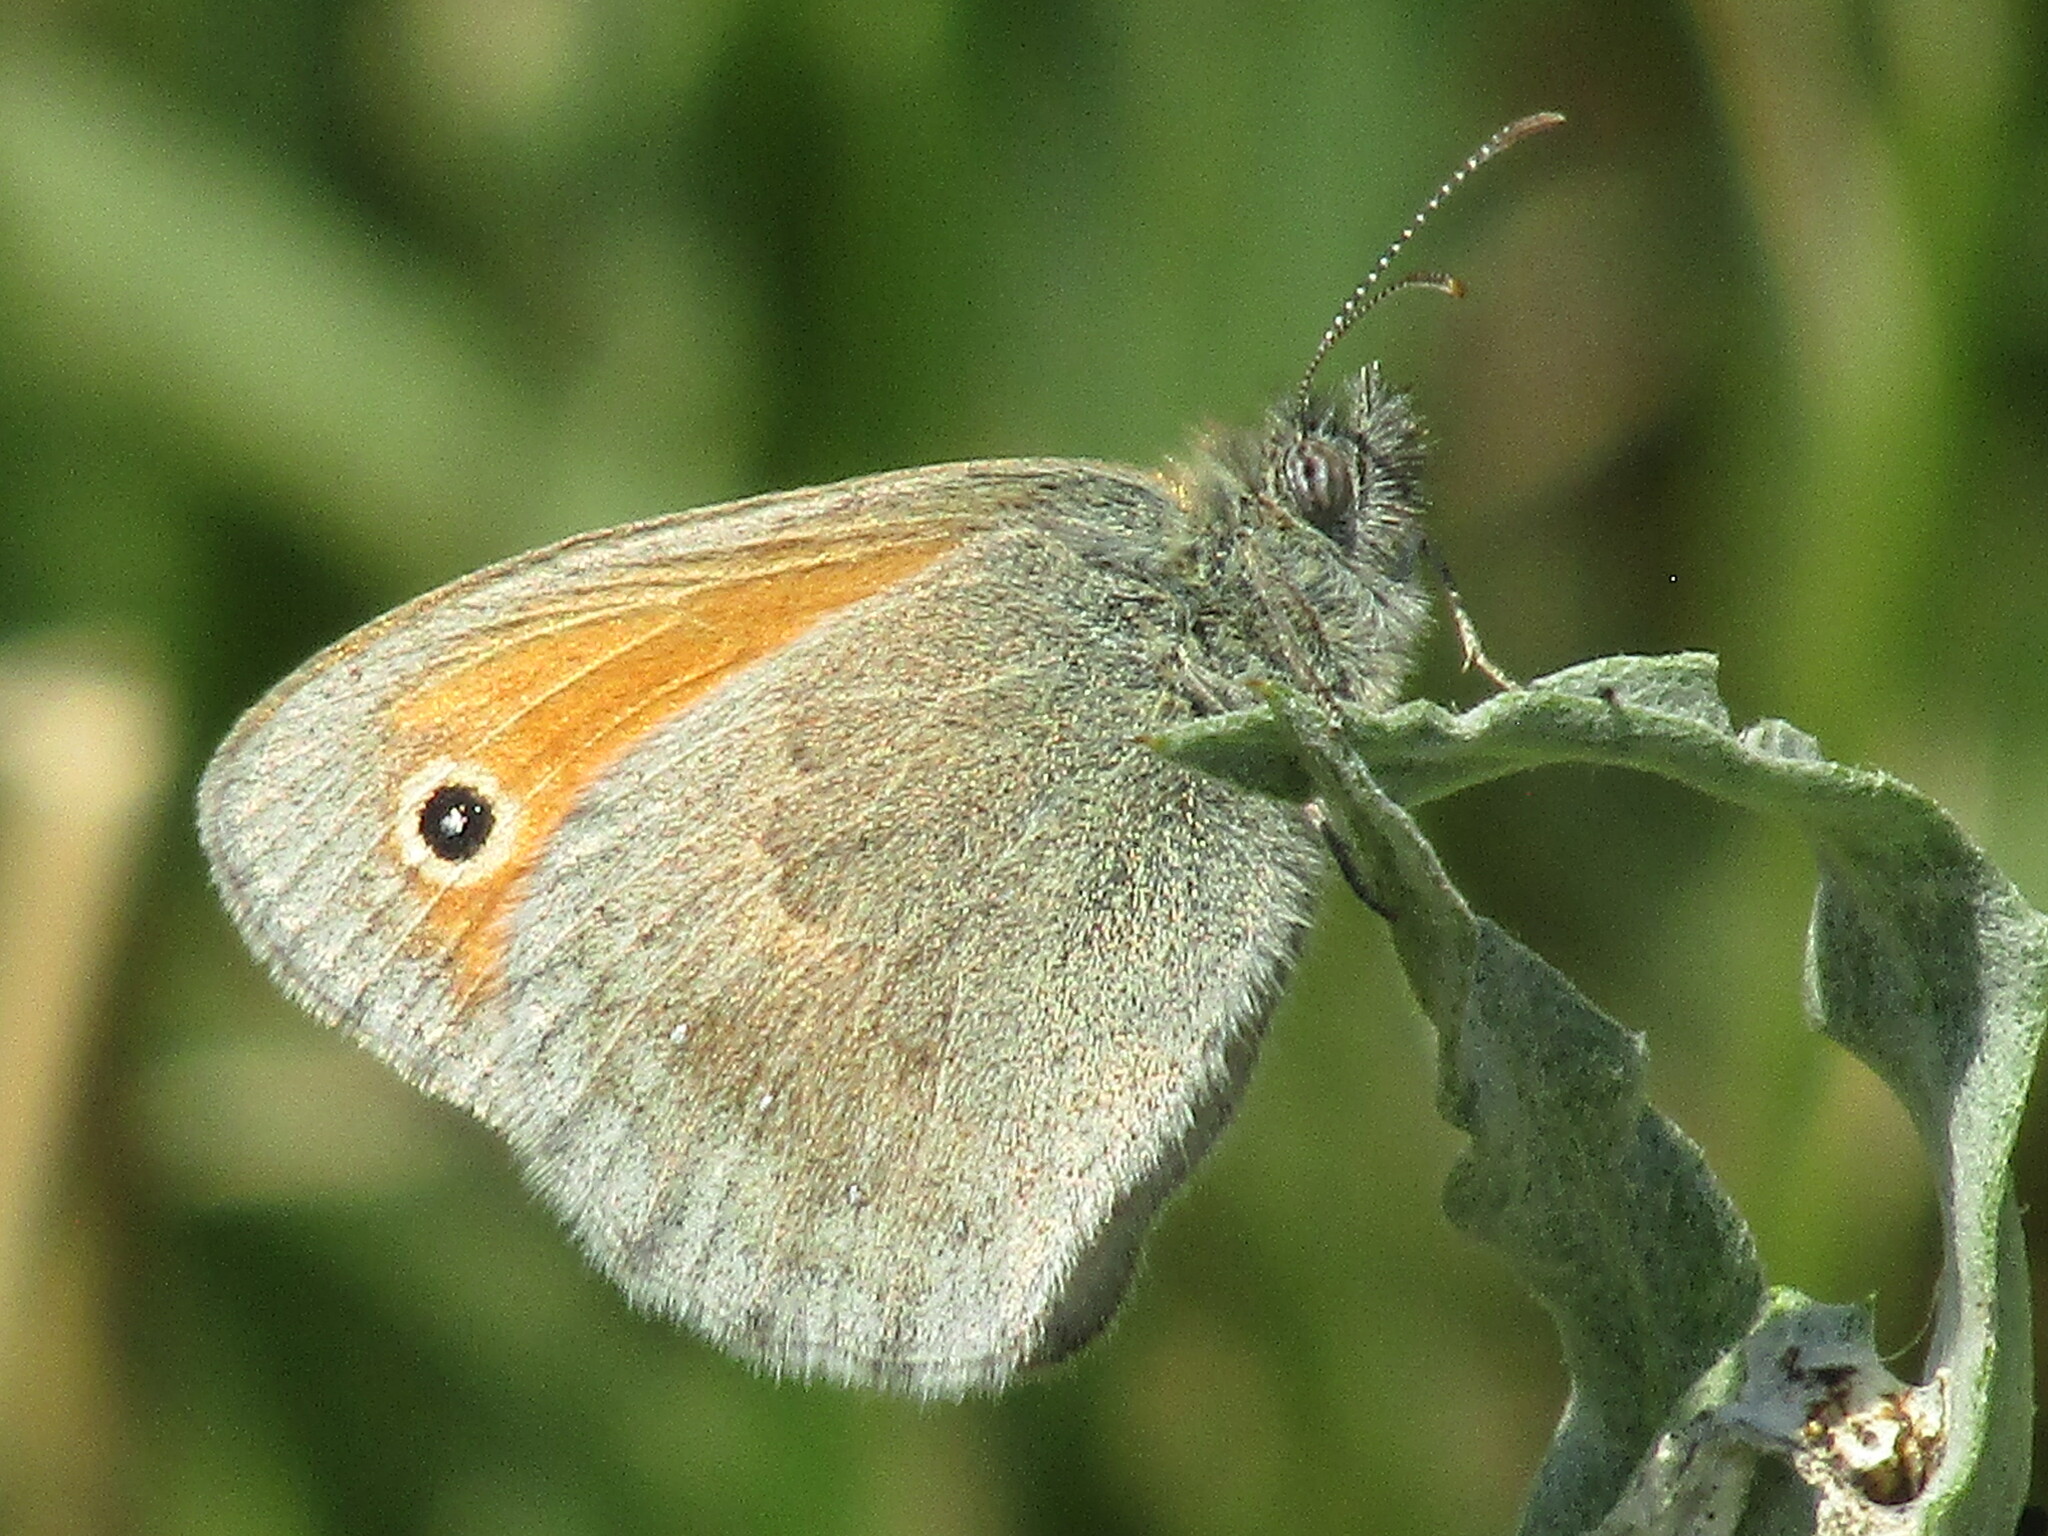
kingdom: Animalia
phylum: Arthropoda
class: Insecta
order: Lepidoptera
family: Nymphalidae
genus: Coenonympha
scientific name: Coenonympha pamphilus
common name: Small heath
